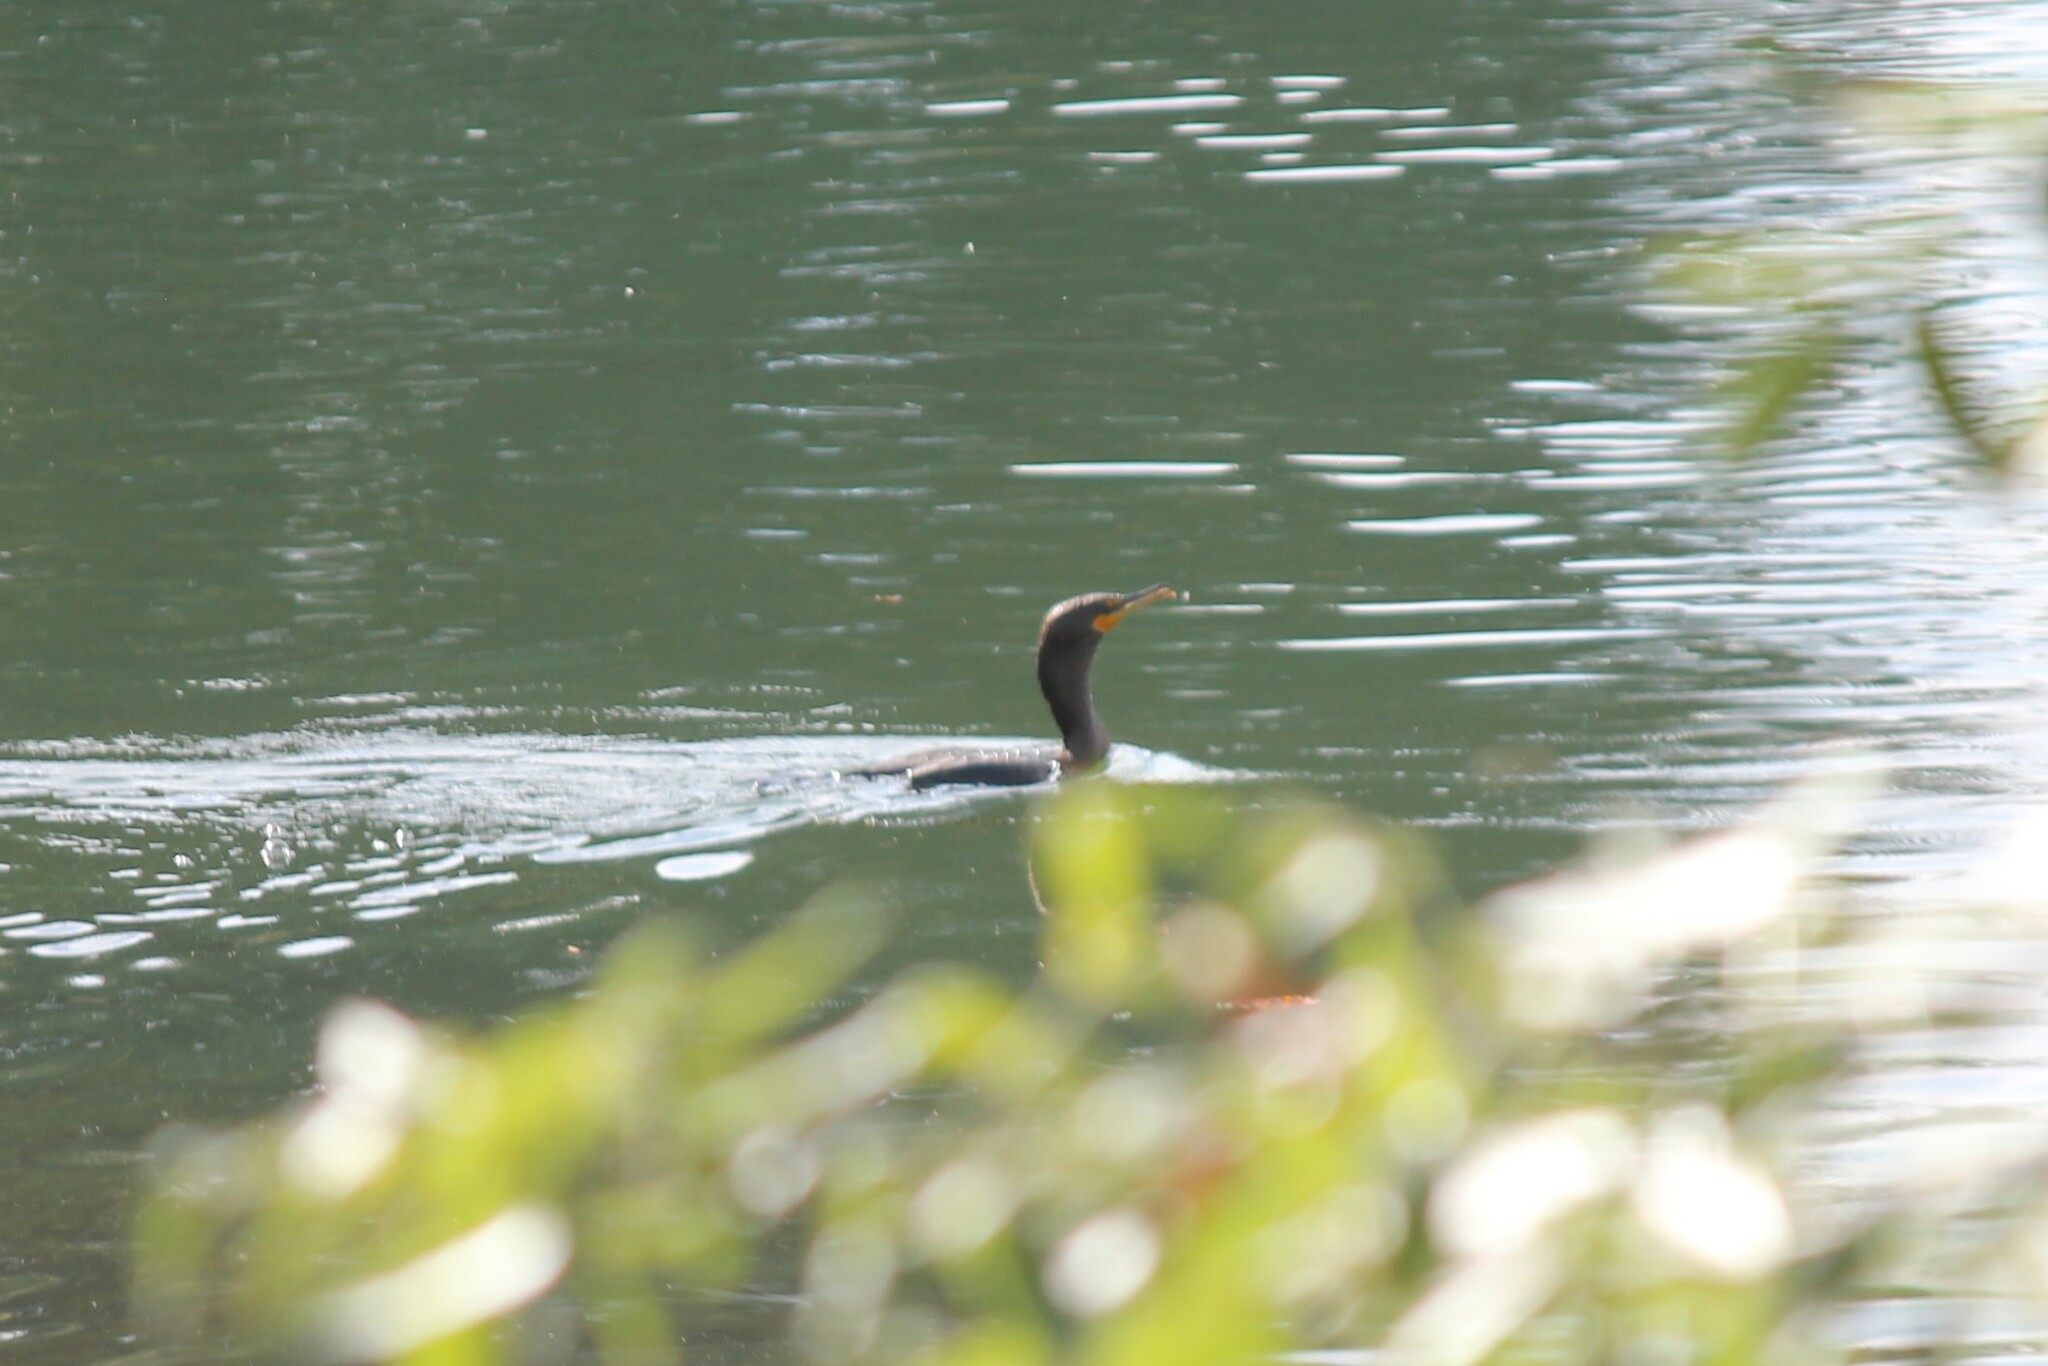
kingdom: Animalia
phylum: Chordata
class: Aves
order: Suliformes
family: Phalacrocoracidae
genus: Phalacrocorax
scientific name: Phalacrocorax auritus
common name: Double-crested cormorant
